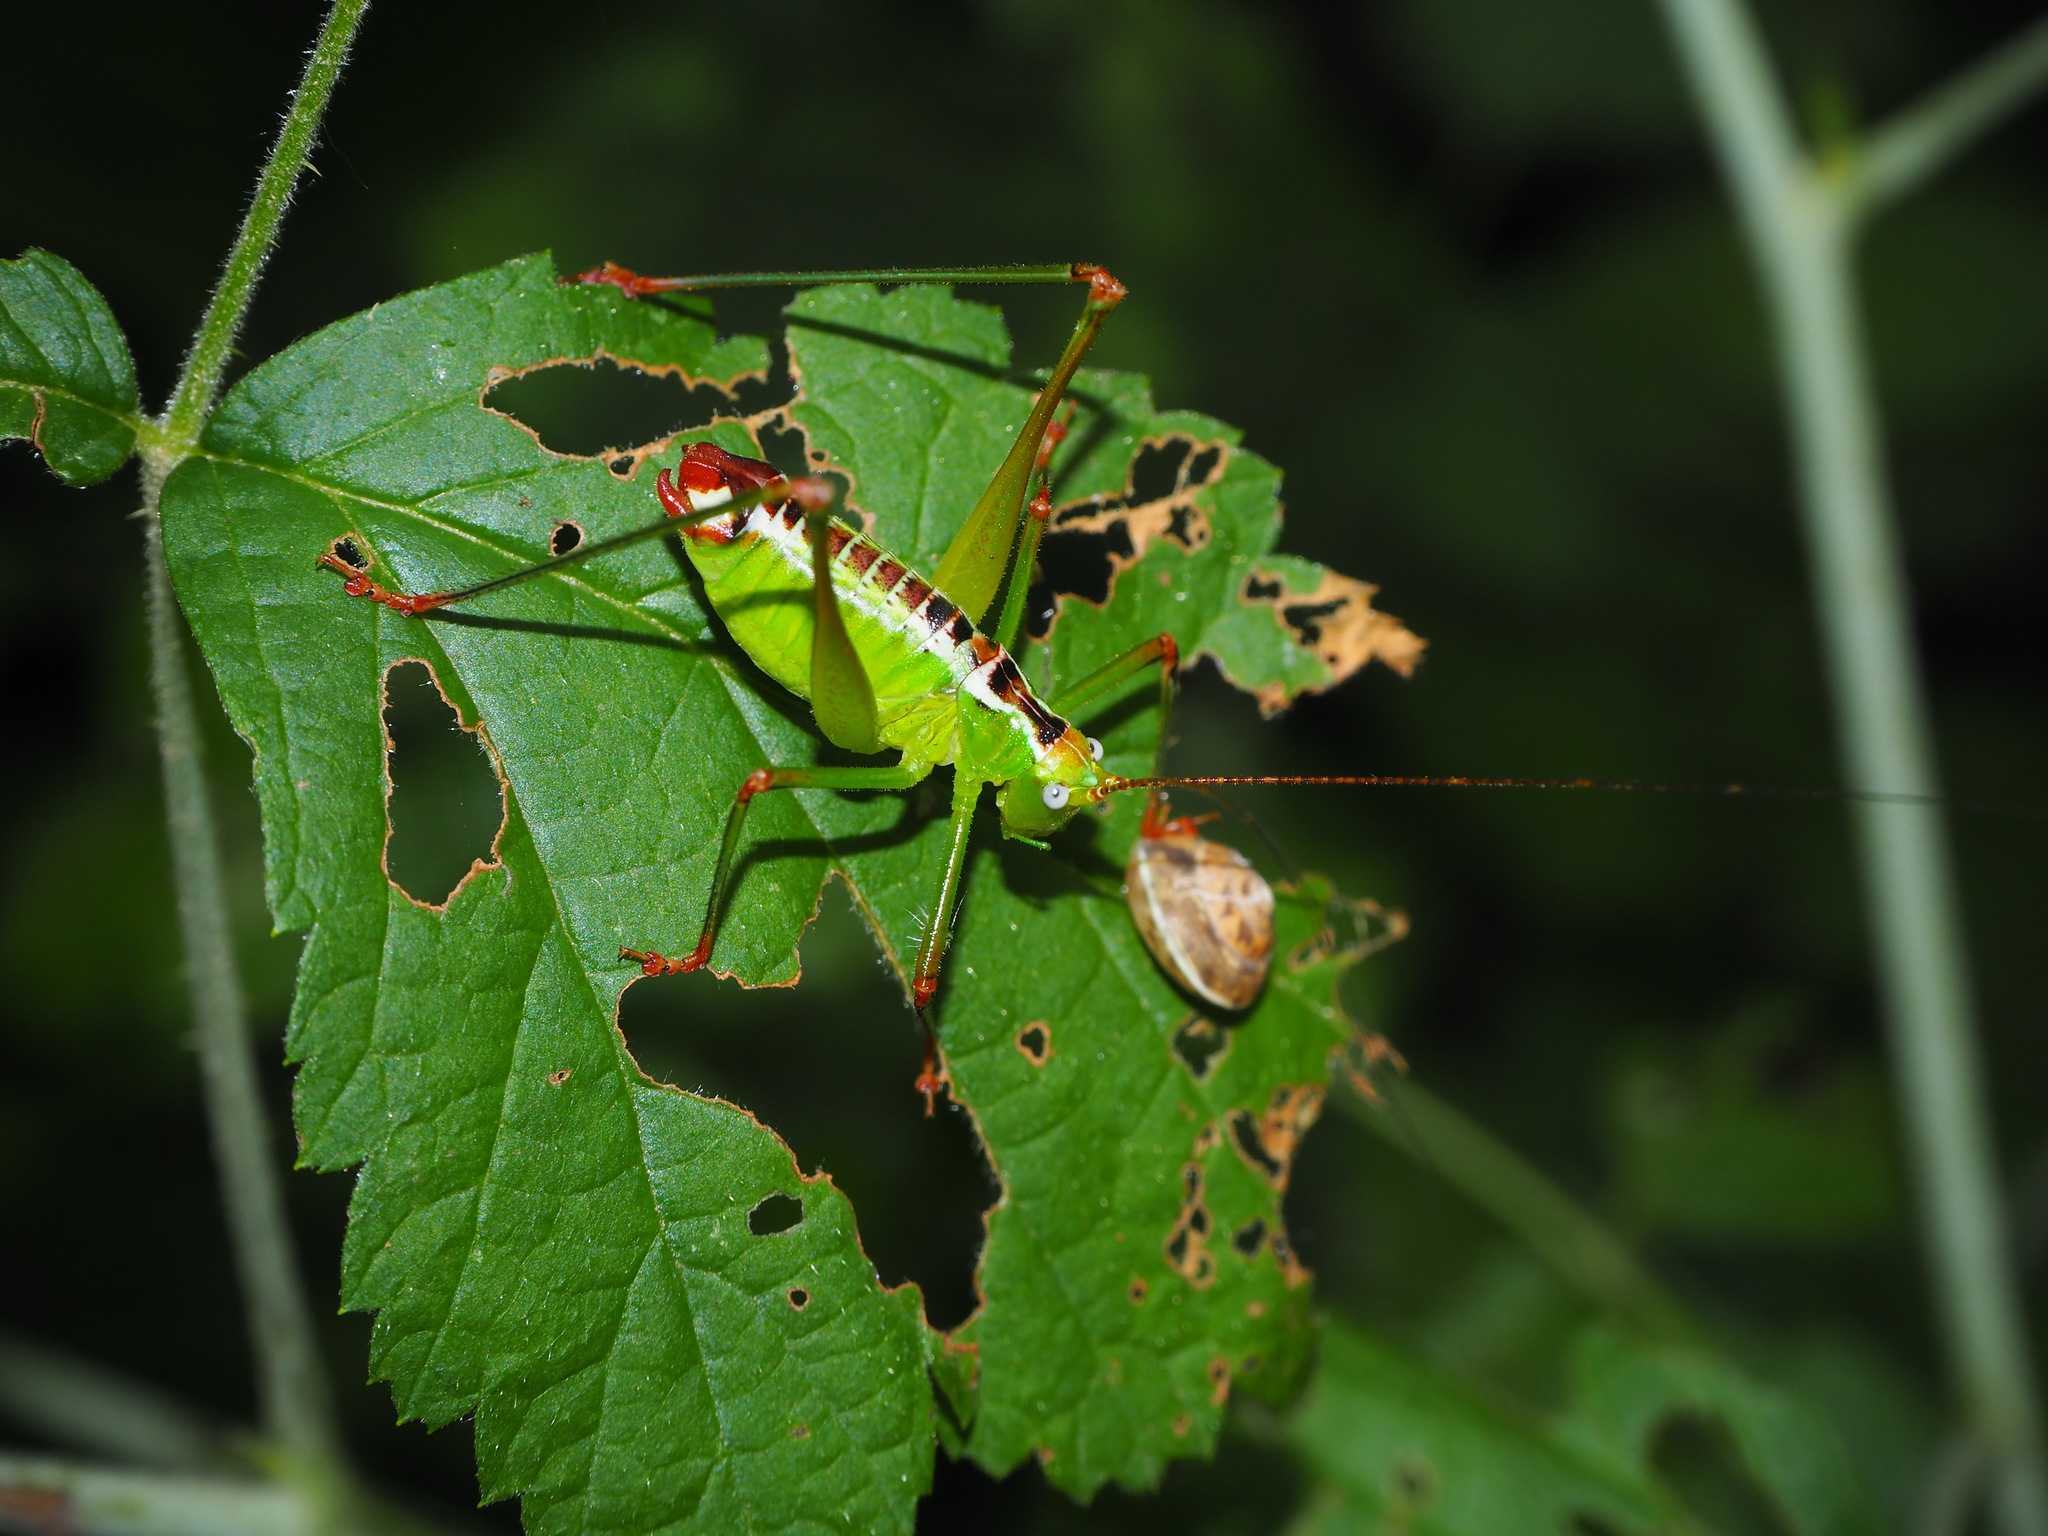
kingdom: Animalia
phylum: Arthropoda
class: Insecta
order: Orthoptera
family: Tettigoniidae
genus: Andreiniimon
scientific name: Andreiniimon nuptialis
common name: Splendid bush-cricket
